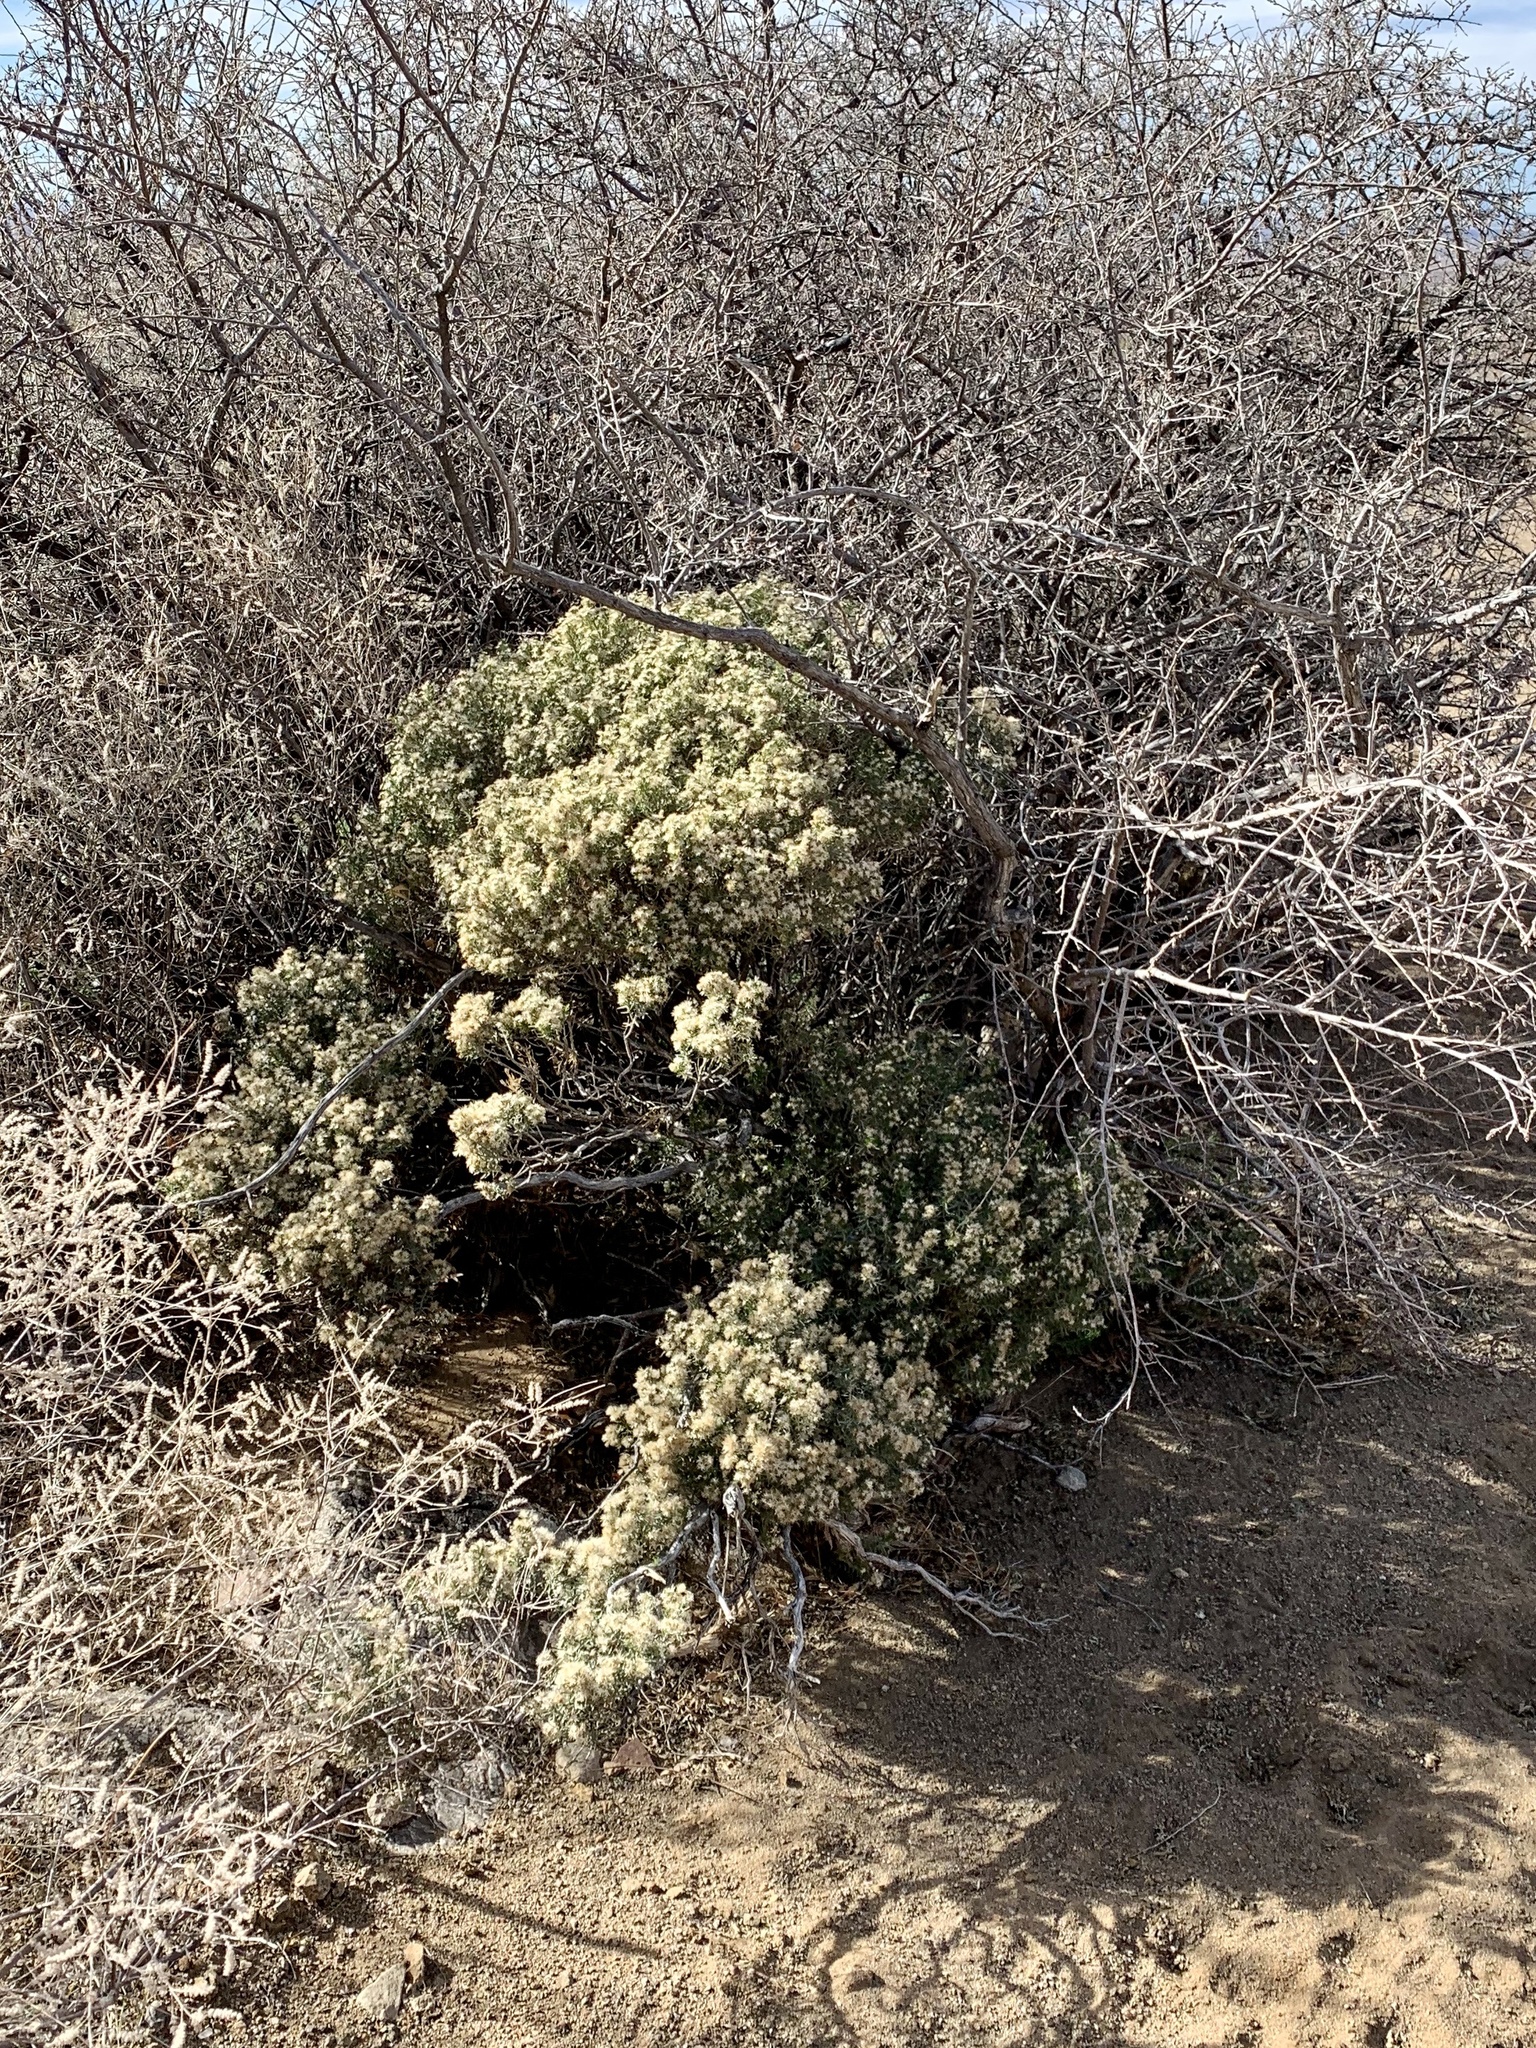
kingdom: Plantae
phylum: Tracheophyta
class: Magnoliopsida
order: Asterales
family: Asteraceae
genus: Ericameria
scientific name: Ericameria laricifolia
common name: Turpentine-bush
